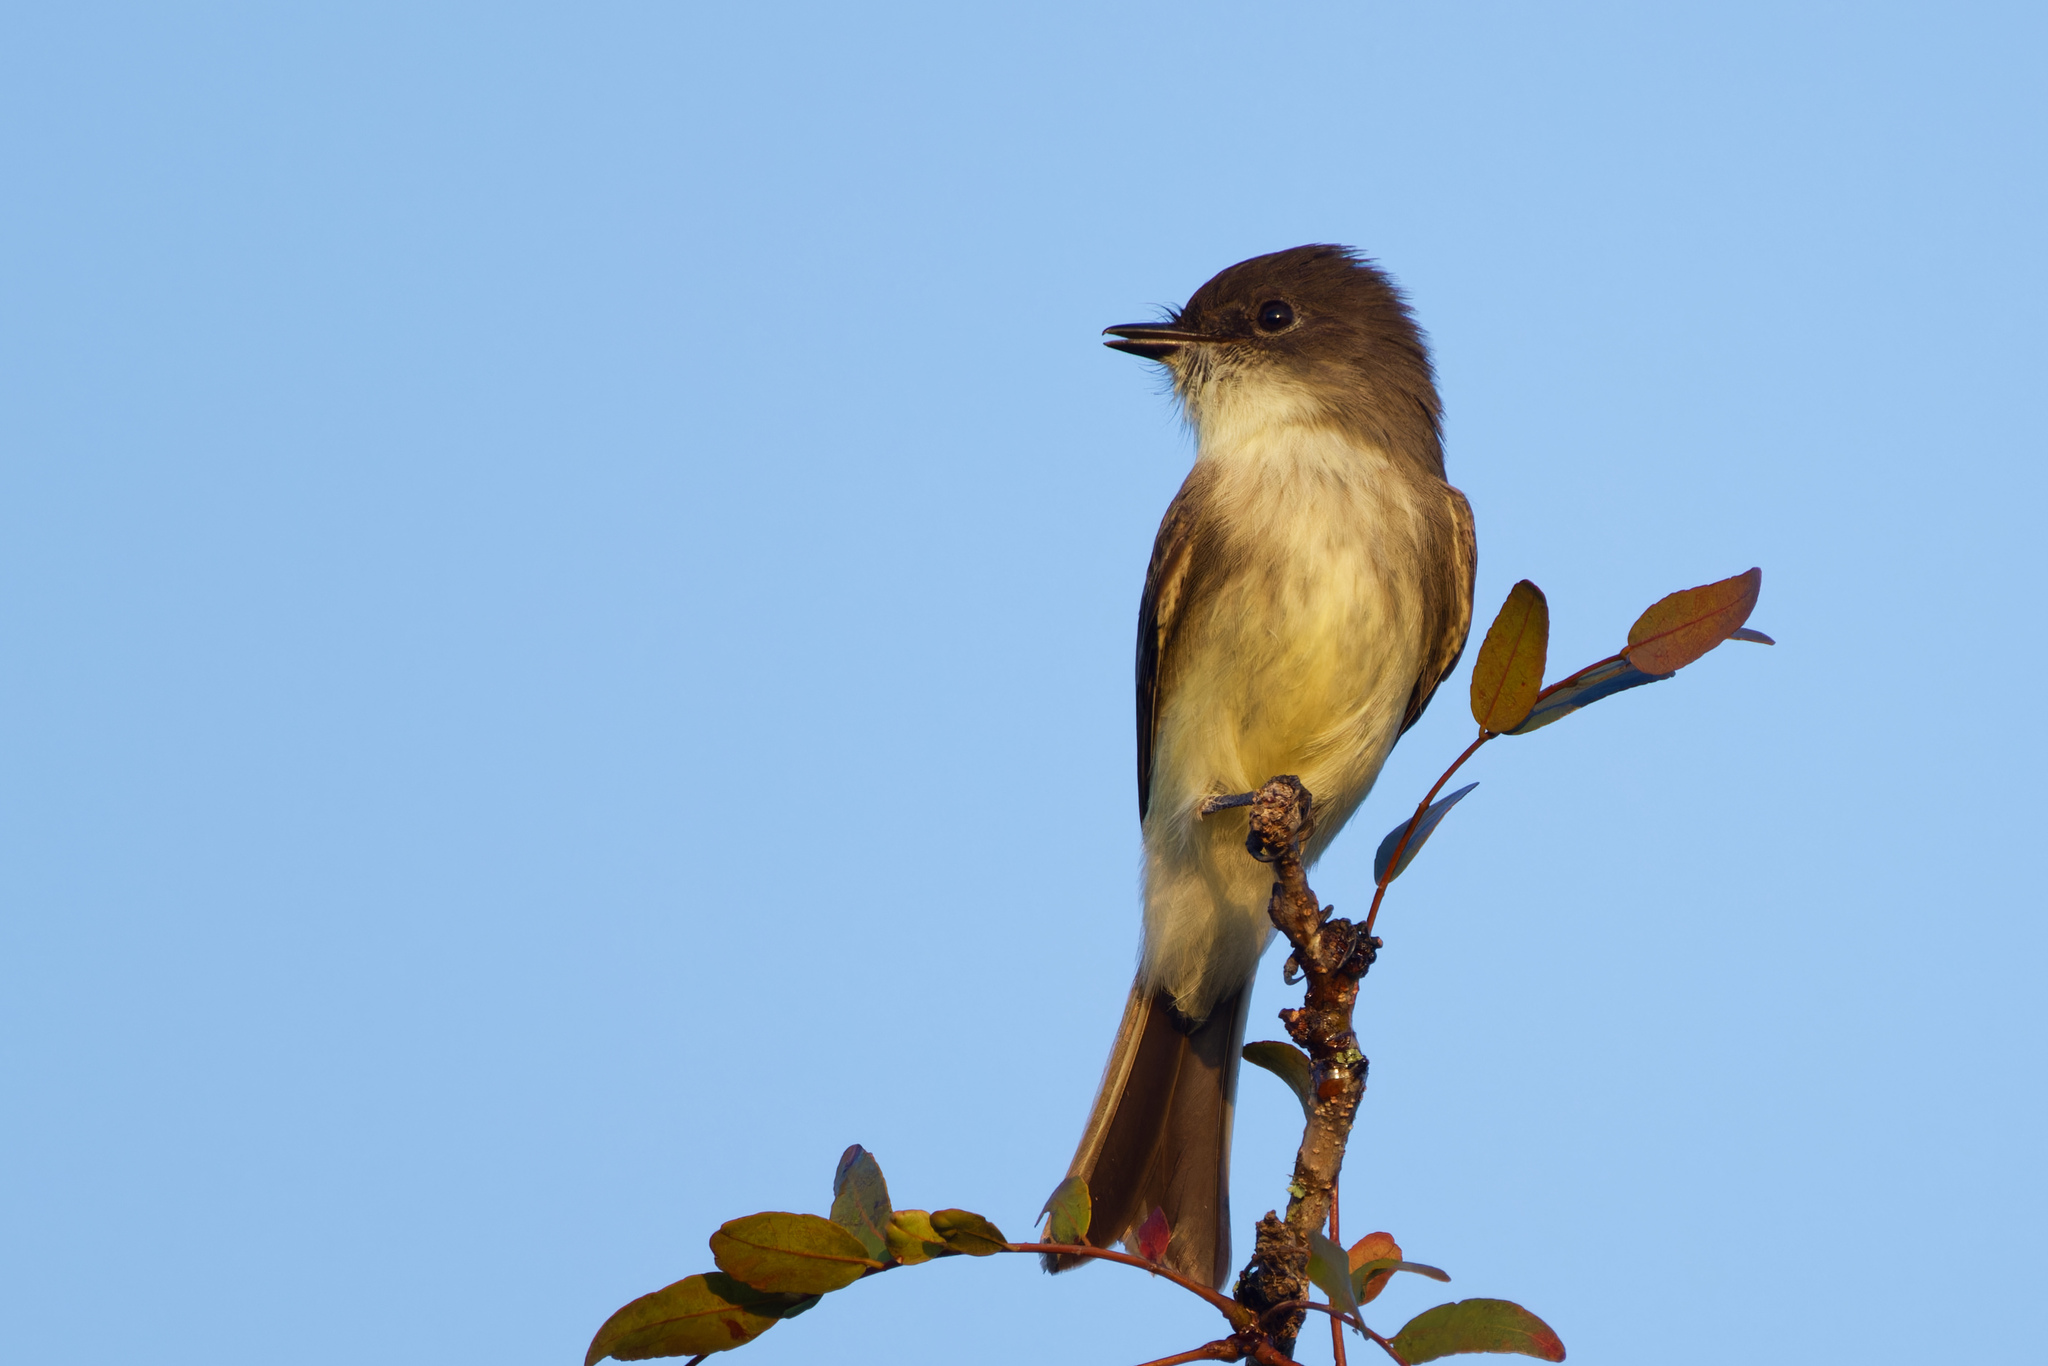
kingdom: Animalia
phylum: Chordata
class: Aves
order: Passeriformes
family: Tyrannidae
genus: Sayornis
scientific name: Sayornis phoebe
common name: Eastern phoebe
